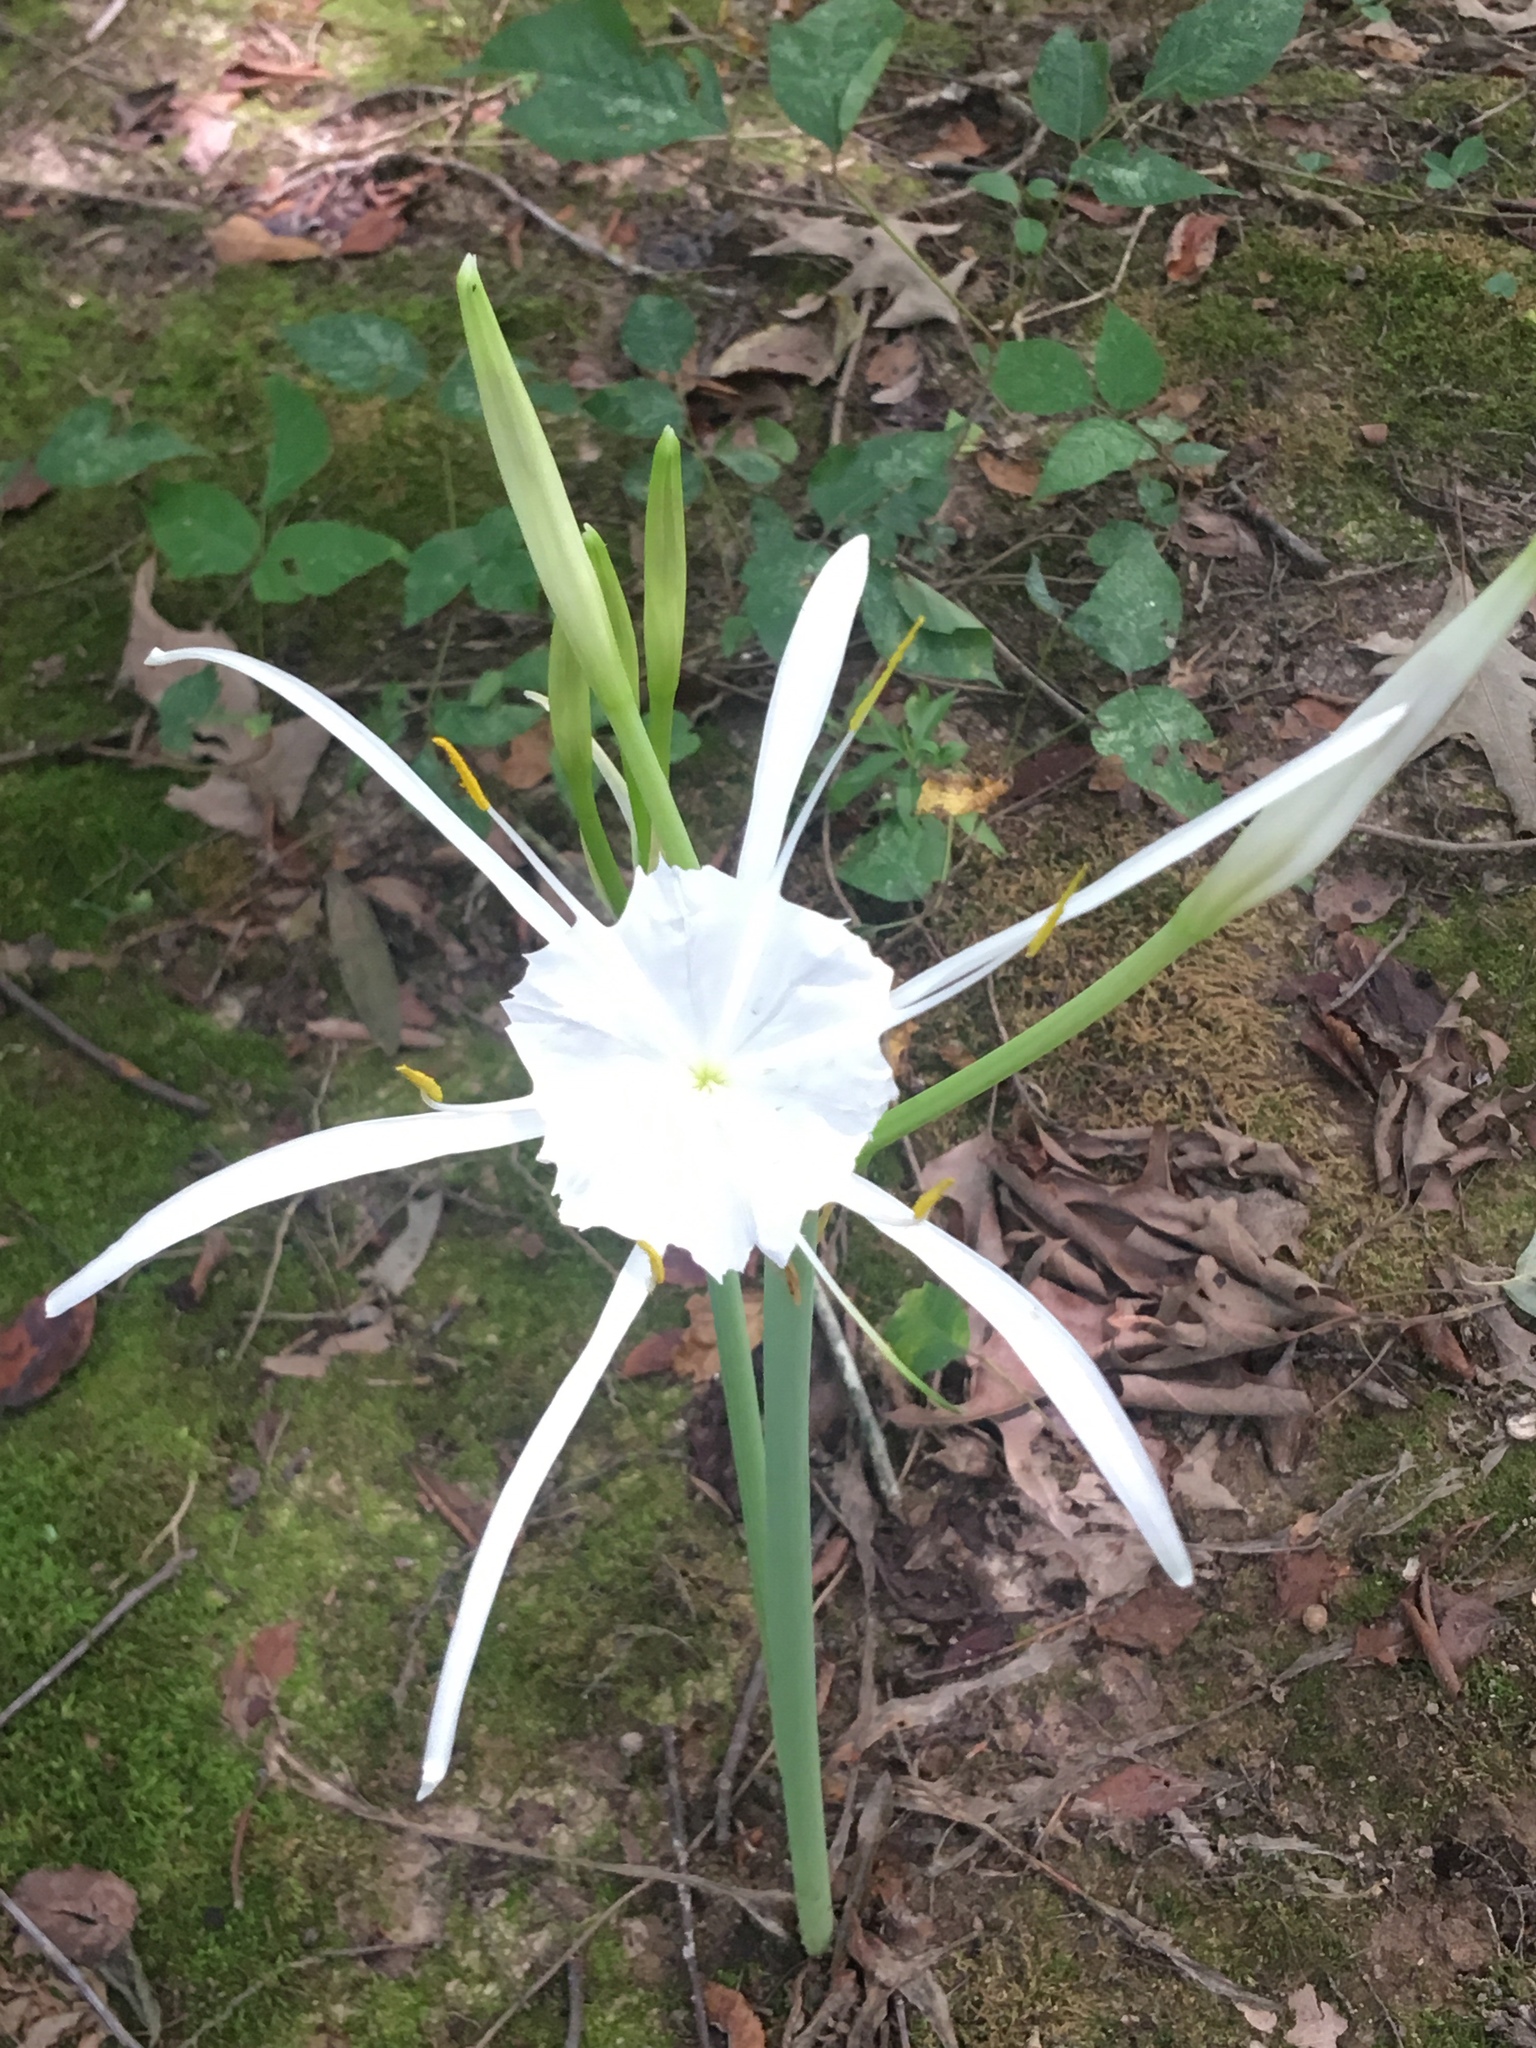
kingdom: Plantae
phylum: Tracheophyta
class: Liliopsida
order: Asparagales
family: Amaryllidaceae
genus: Hymenocallis
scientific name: Hymenocallis occidentalis
